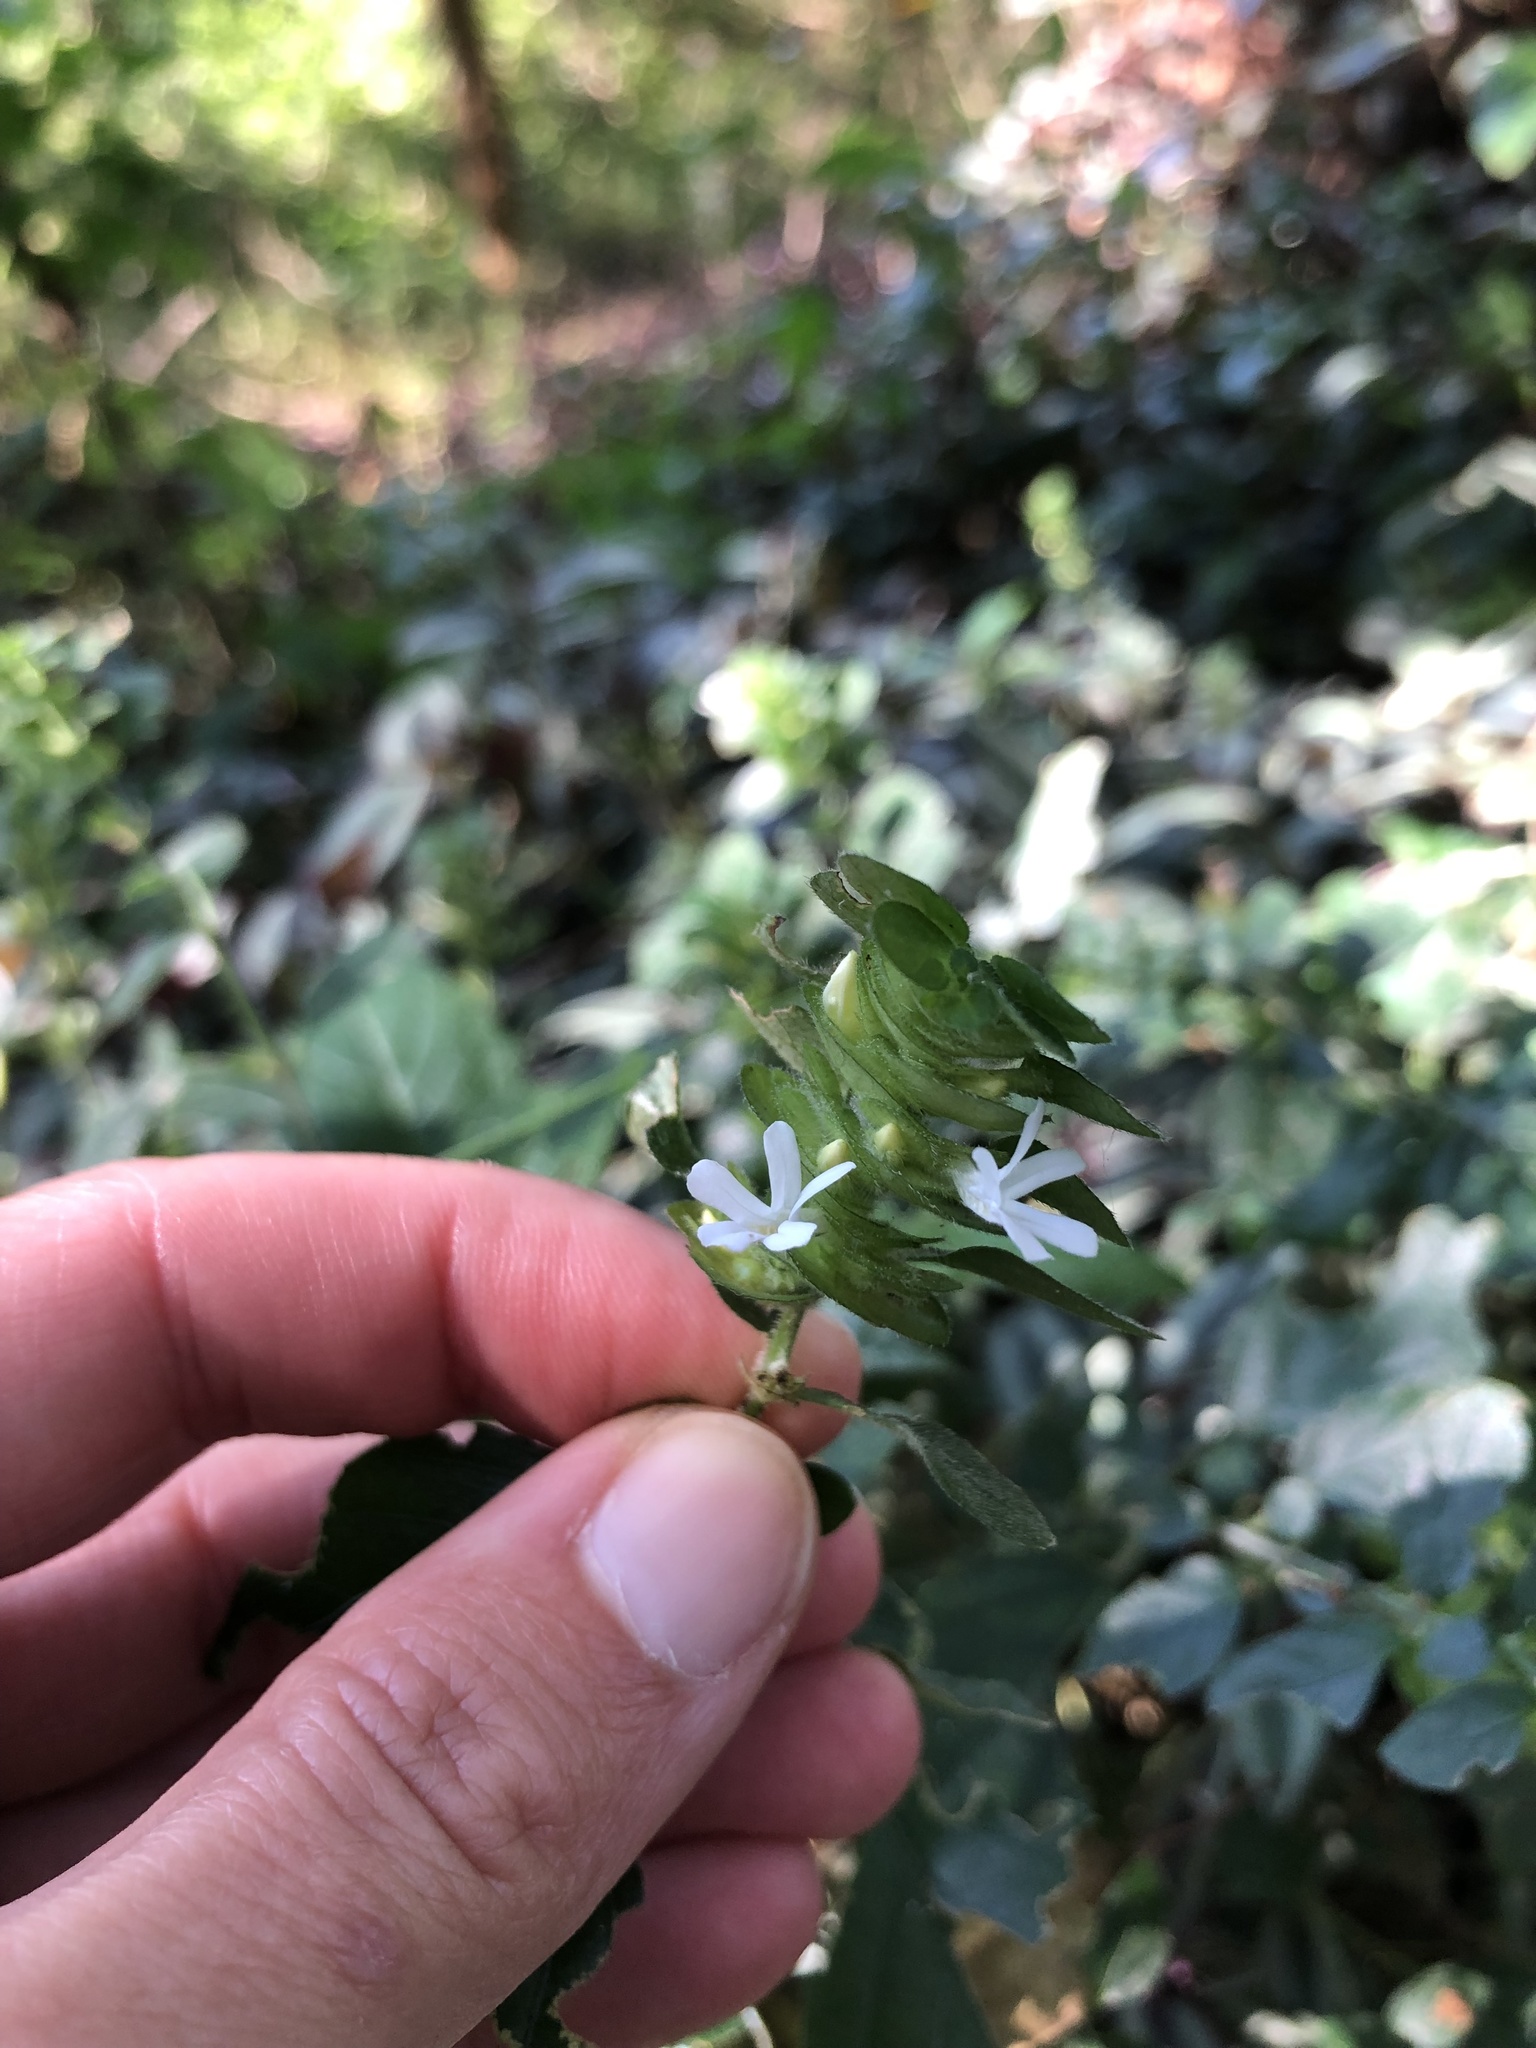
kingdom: Plantae
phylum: Tracheophyta
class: Magnoliopsida
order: Lamiales
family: Acanthaceae
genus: Phaulopsis
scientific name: Phaulopsis imbricata
